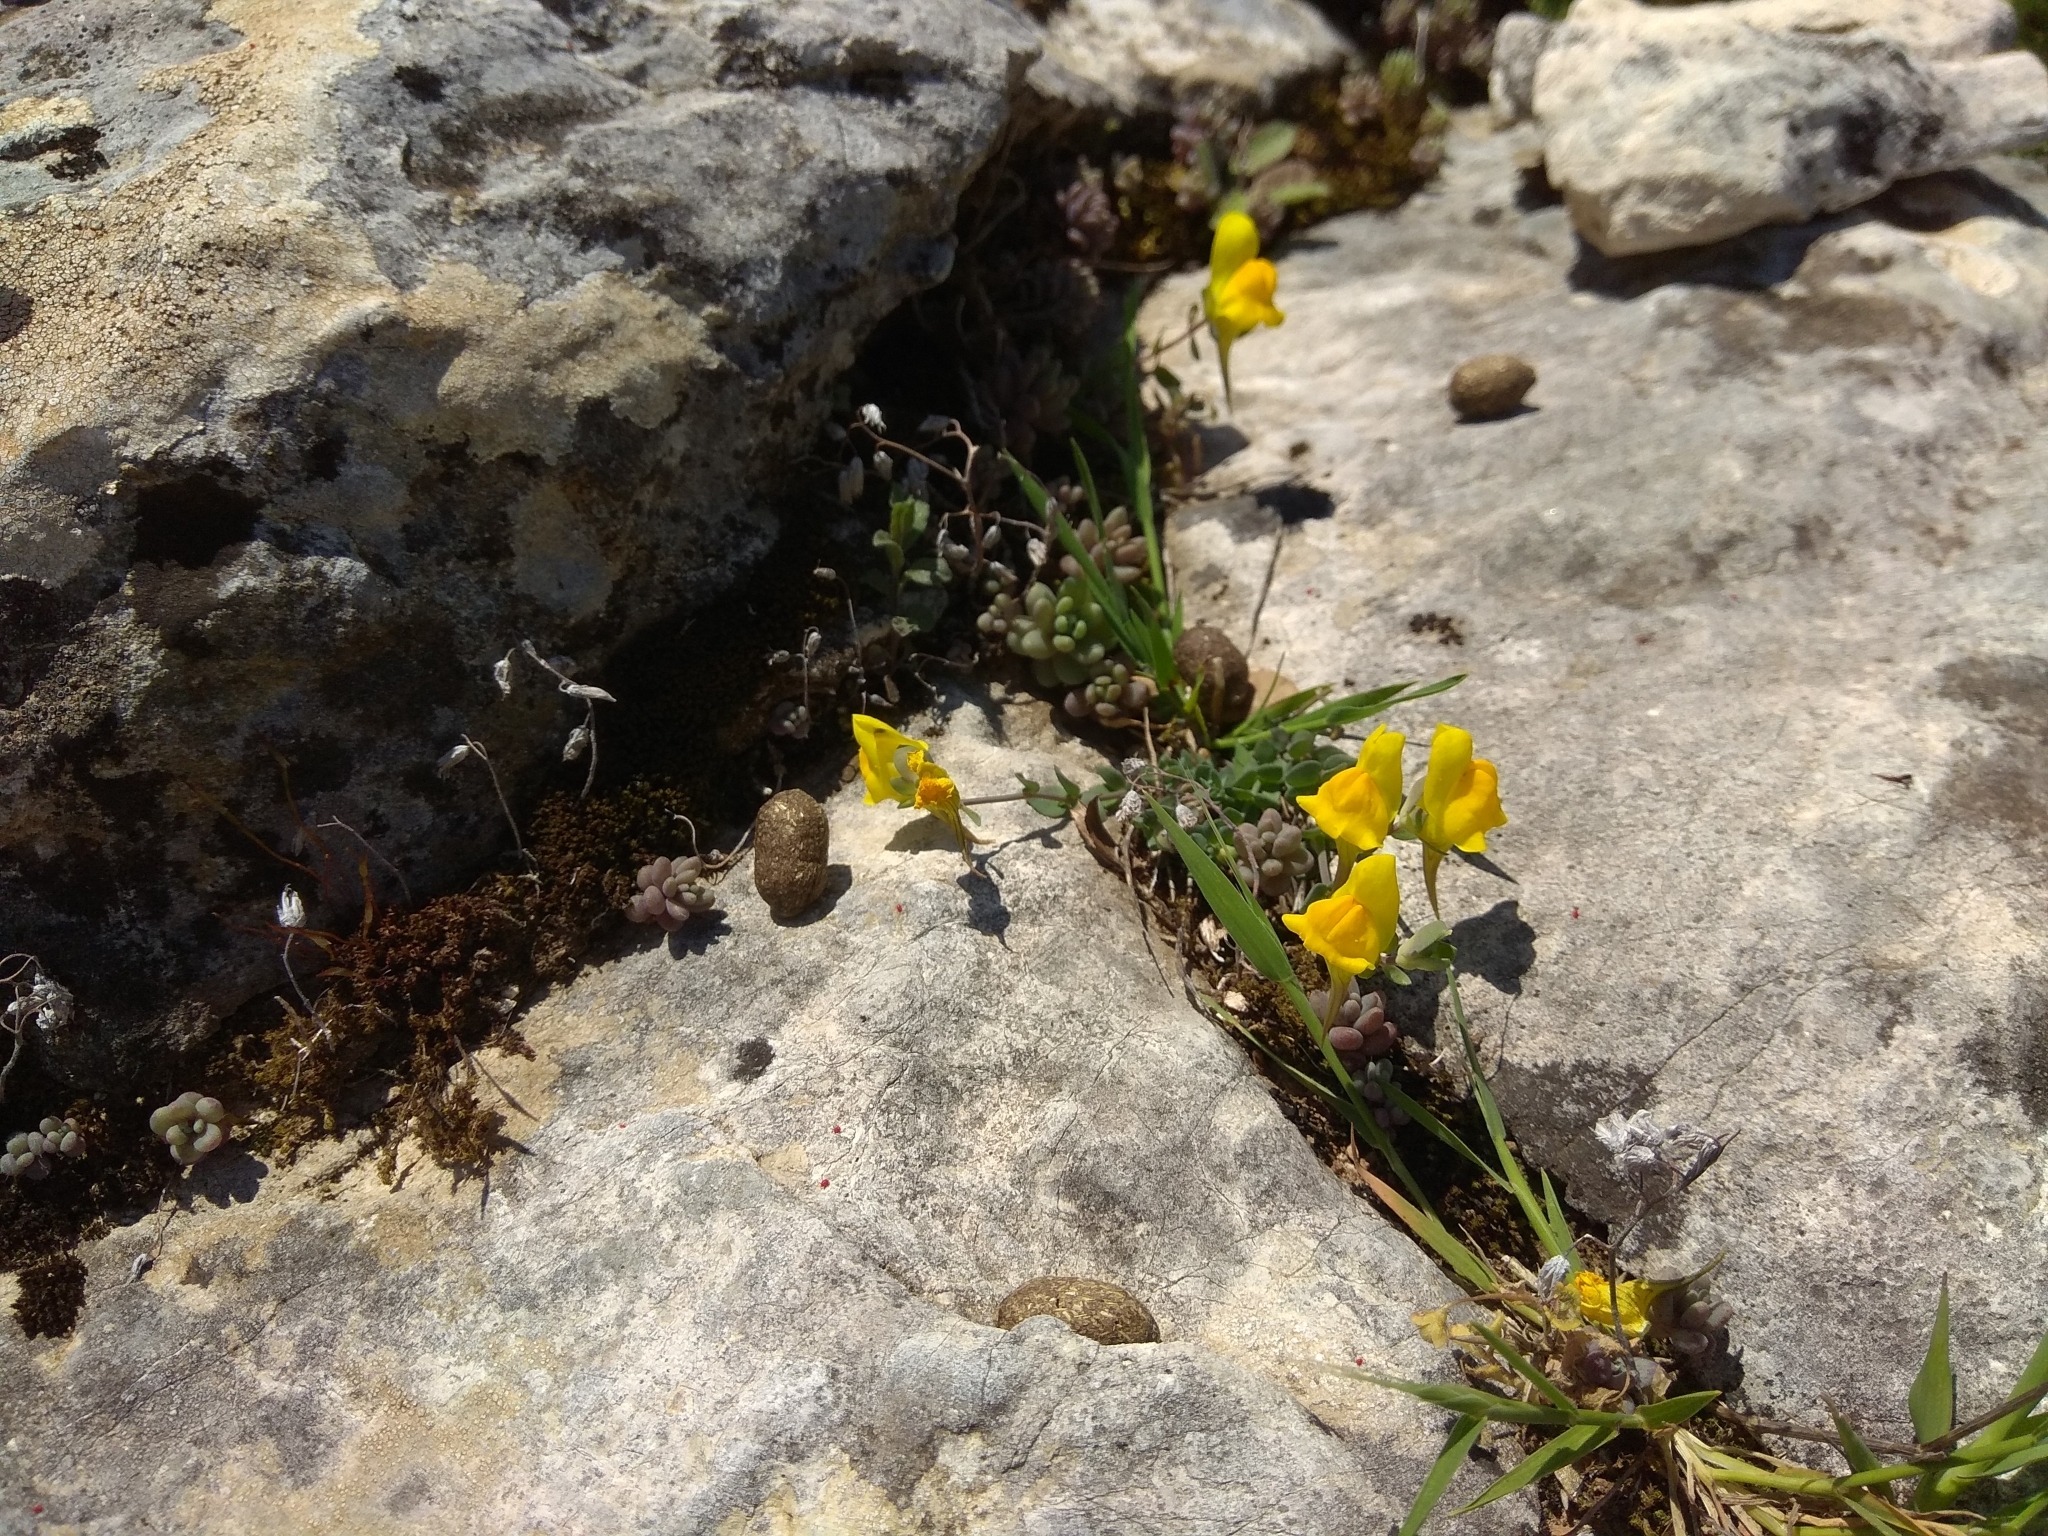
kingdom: Plantae
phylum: Tracheophyta
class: Magnoliopsida
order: Lamiales
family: Plantaginaceae
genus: Linaria
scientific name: Linaria platycalyx
